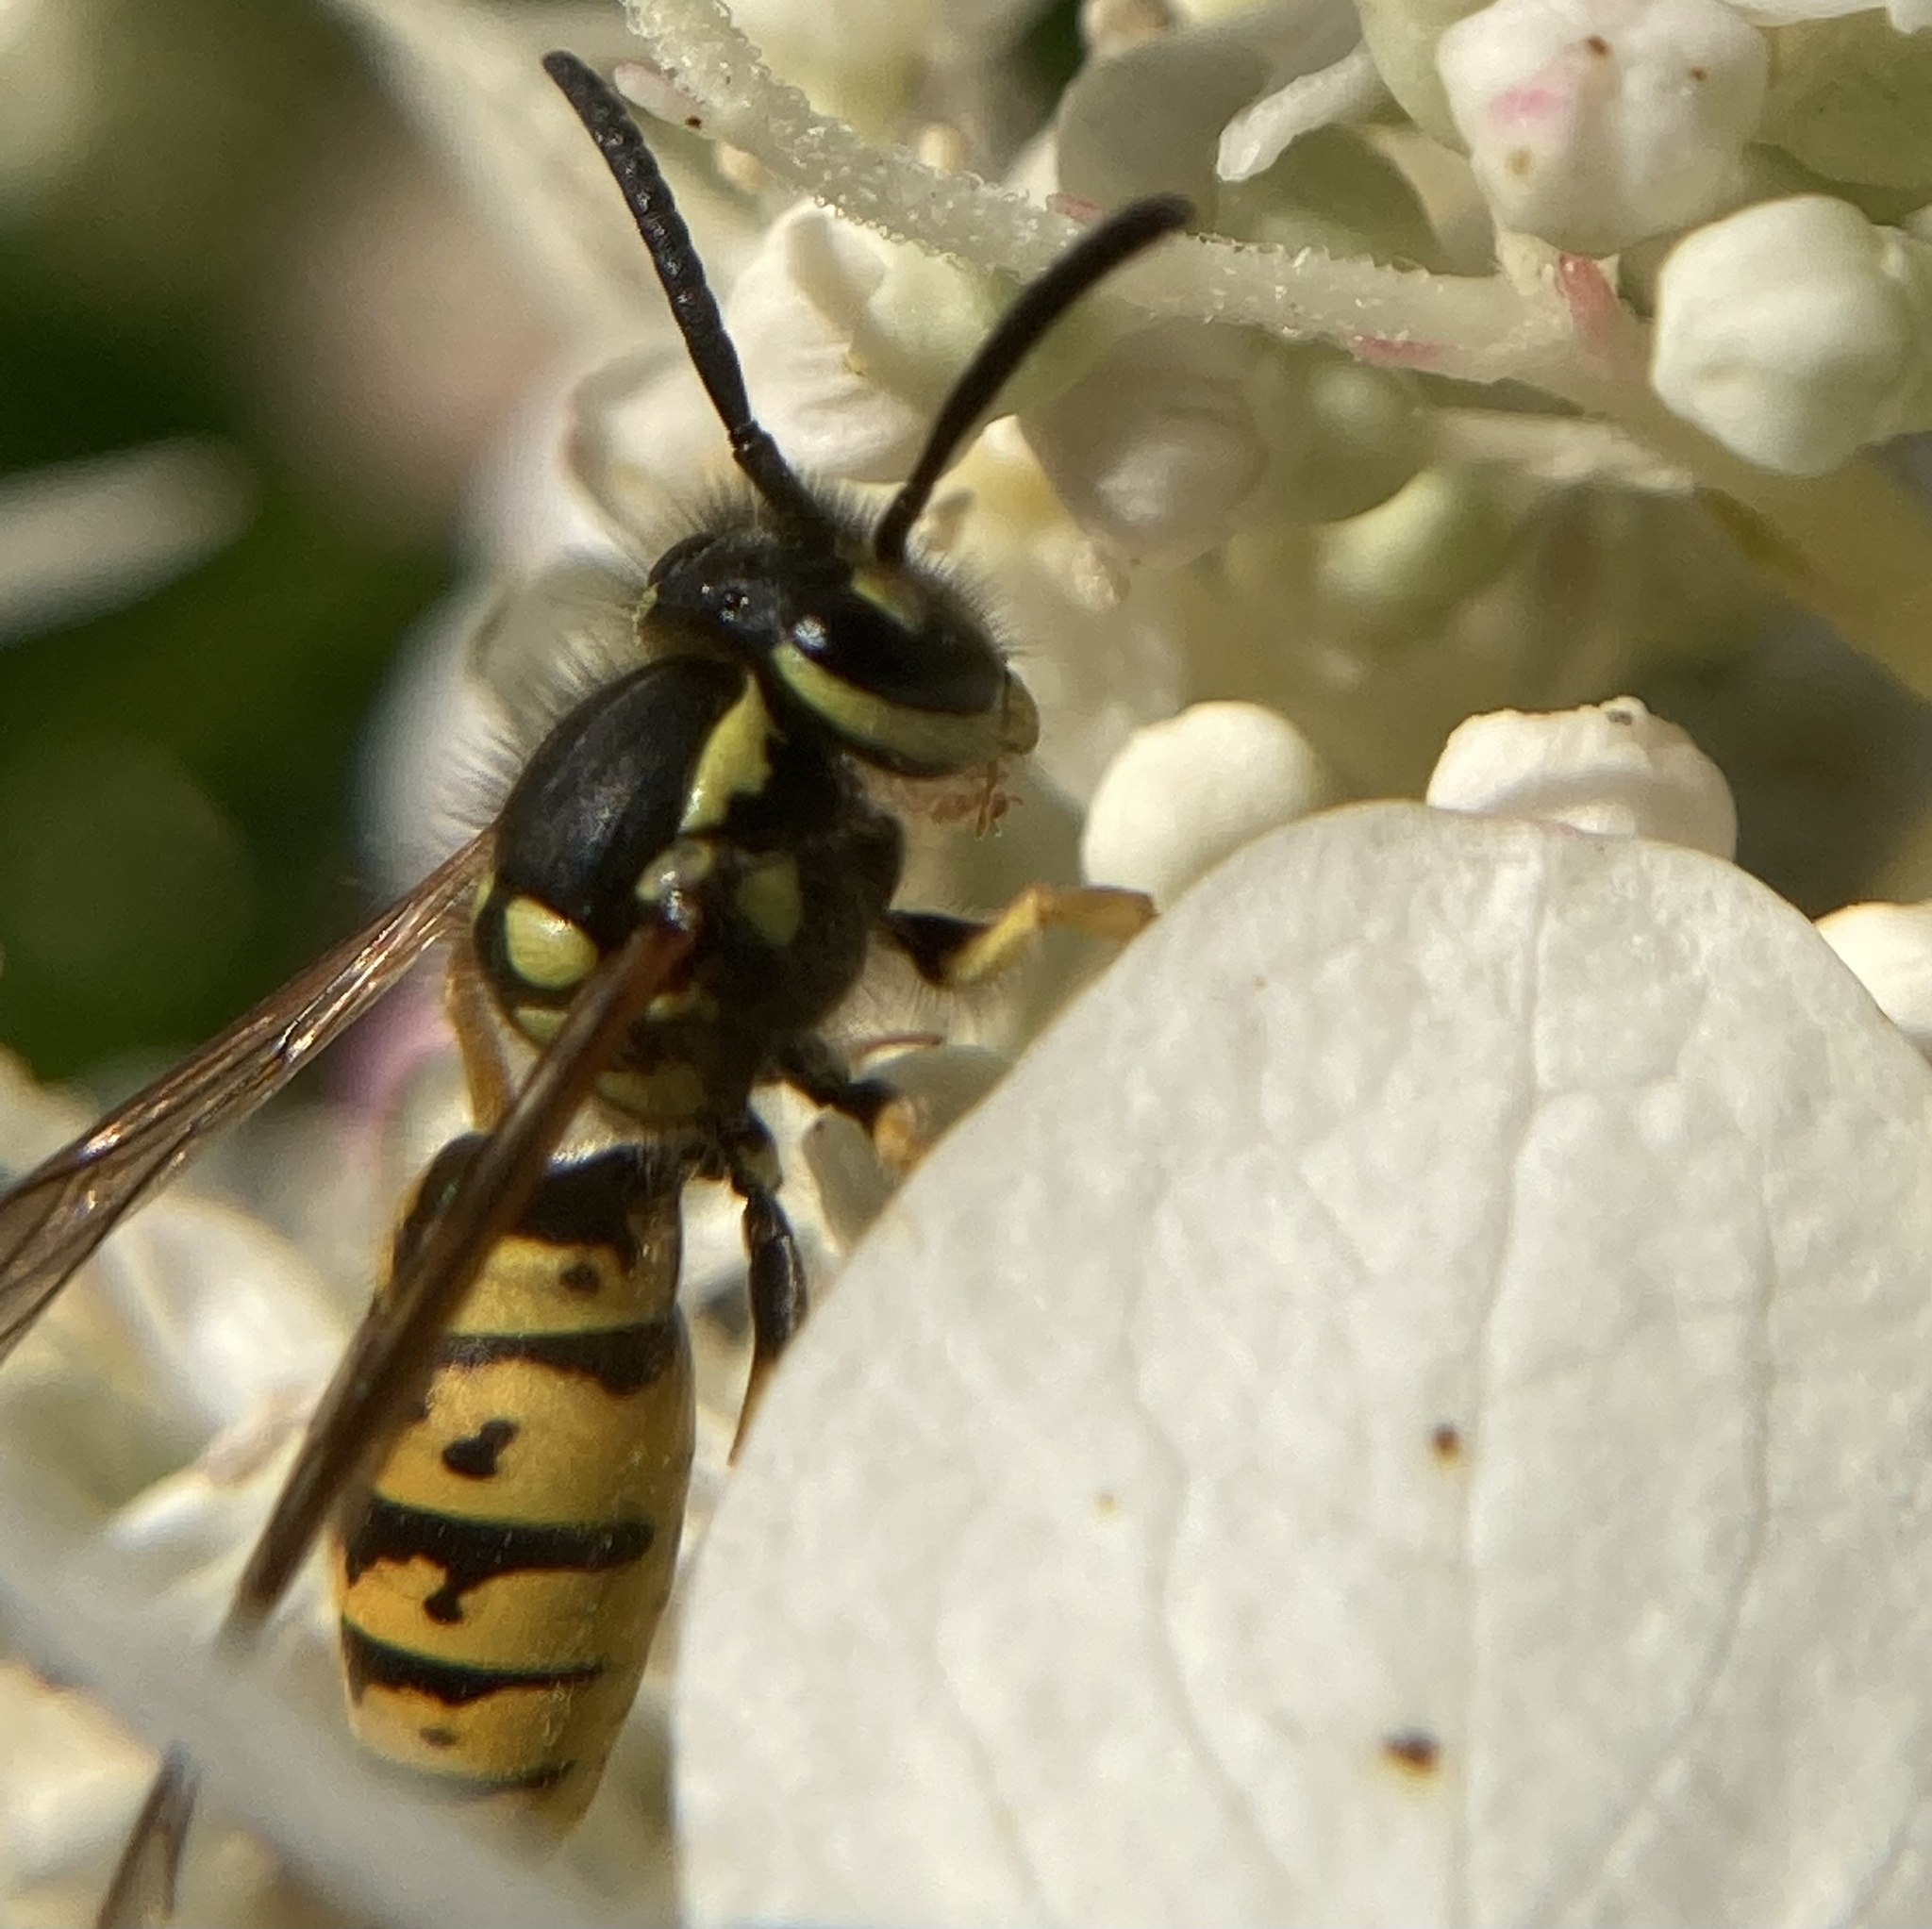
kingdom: Animalia
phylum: Arthropoda
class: Insecta
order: Hymenoptera
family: Vespidae
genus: Vespula
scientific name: Vespula germanica
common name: German wasp
